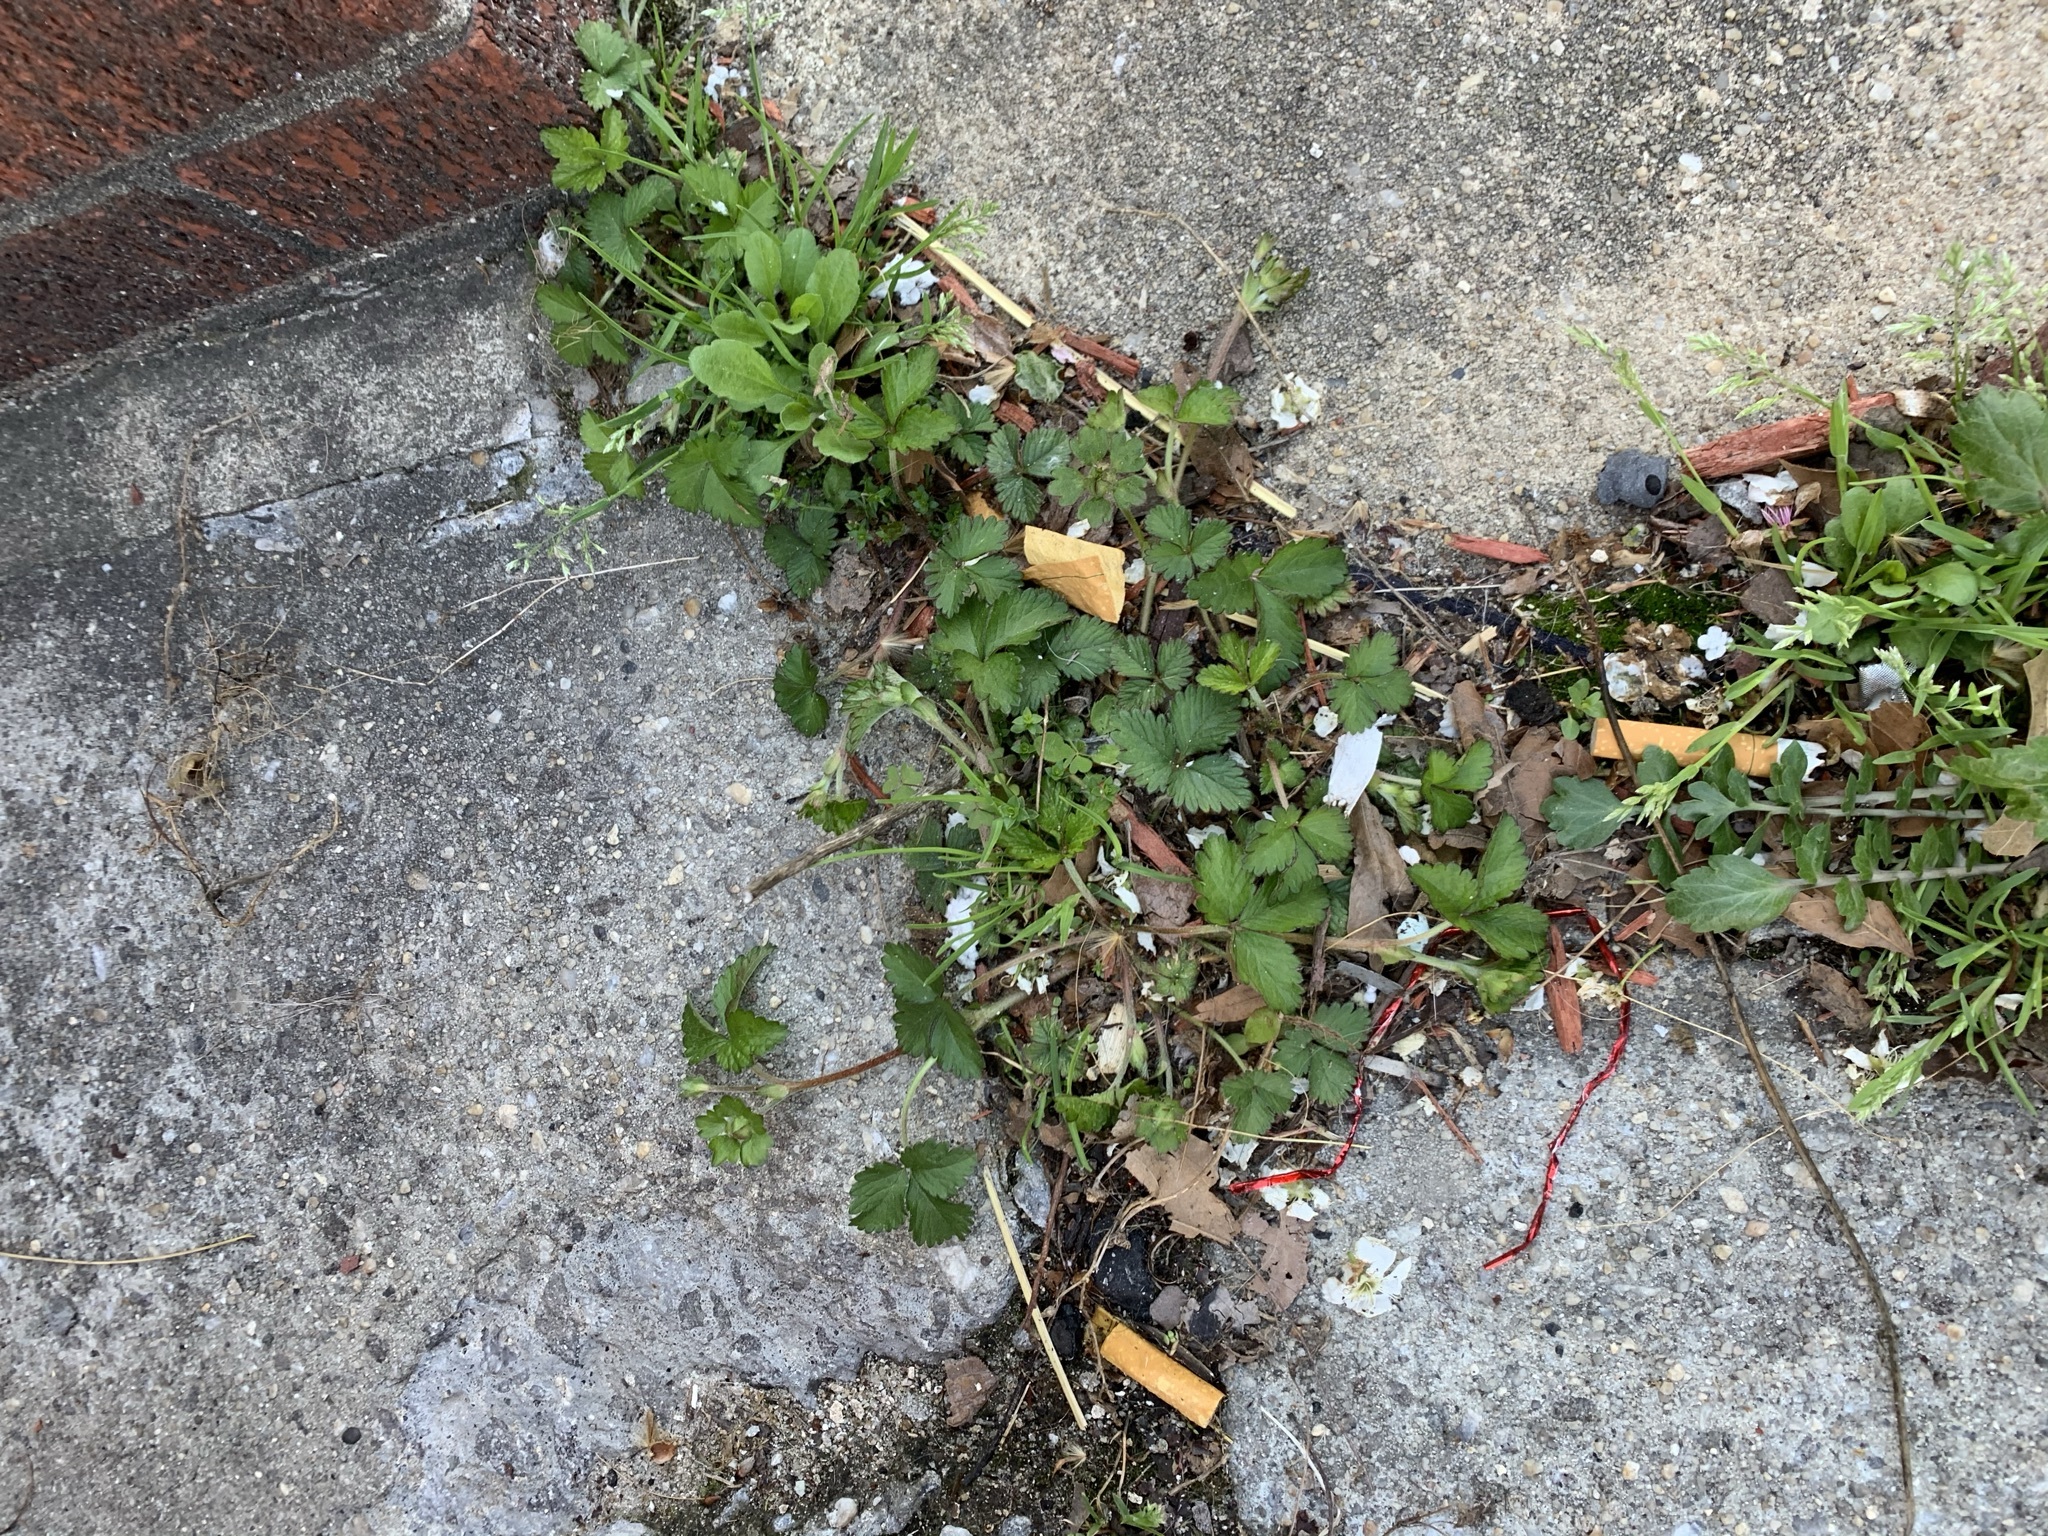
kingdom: Plantae
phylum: Tracheophyta
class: Magnoliopsida
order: Rosales
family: Rosaceae
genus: Potentilla
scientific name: Potentilla indica
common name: Yellow-flowered strawberry
